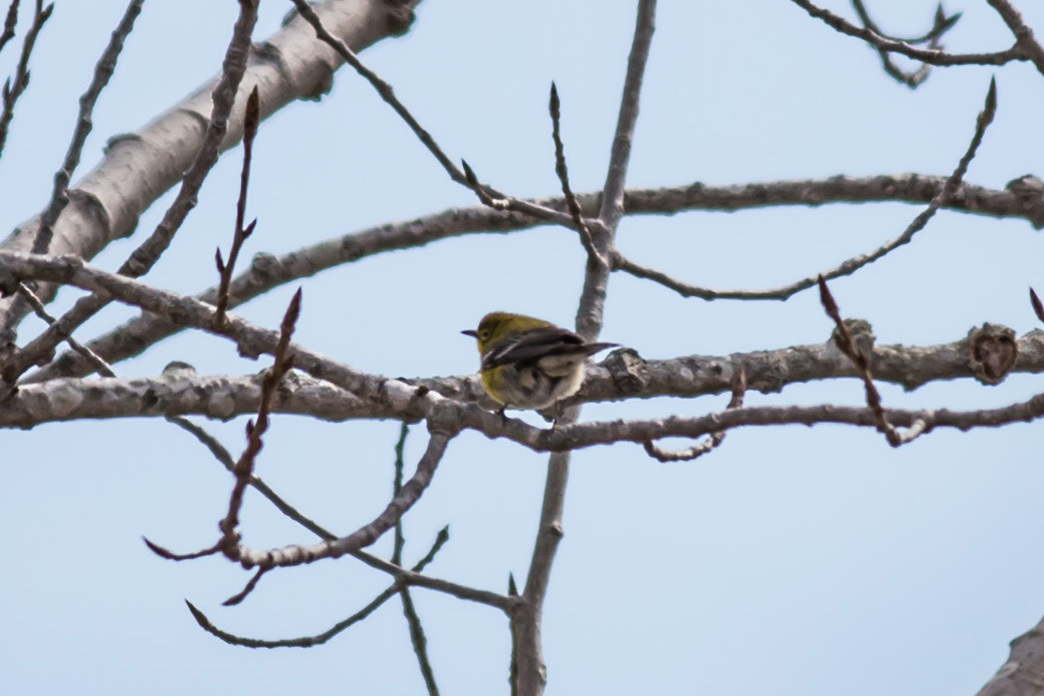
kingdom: Animalia
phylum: Chordata
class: Aves
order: Passeriformes
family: Parulidae
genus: Setophaga
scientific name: Setophaga pinus
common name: Pine warbler
